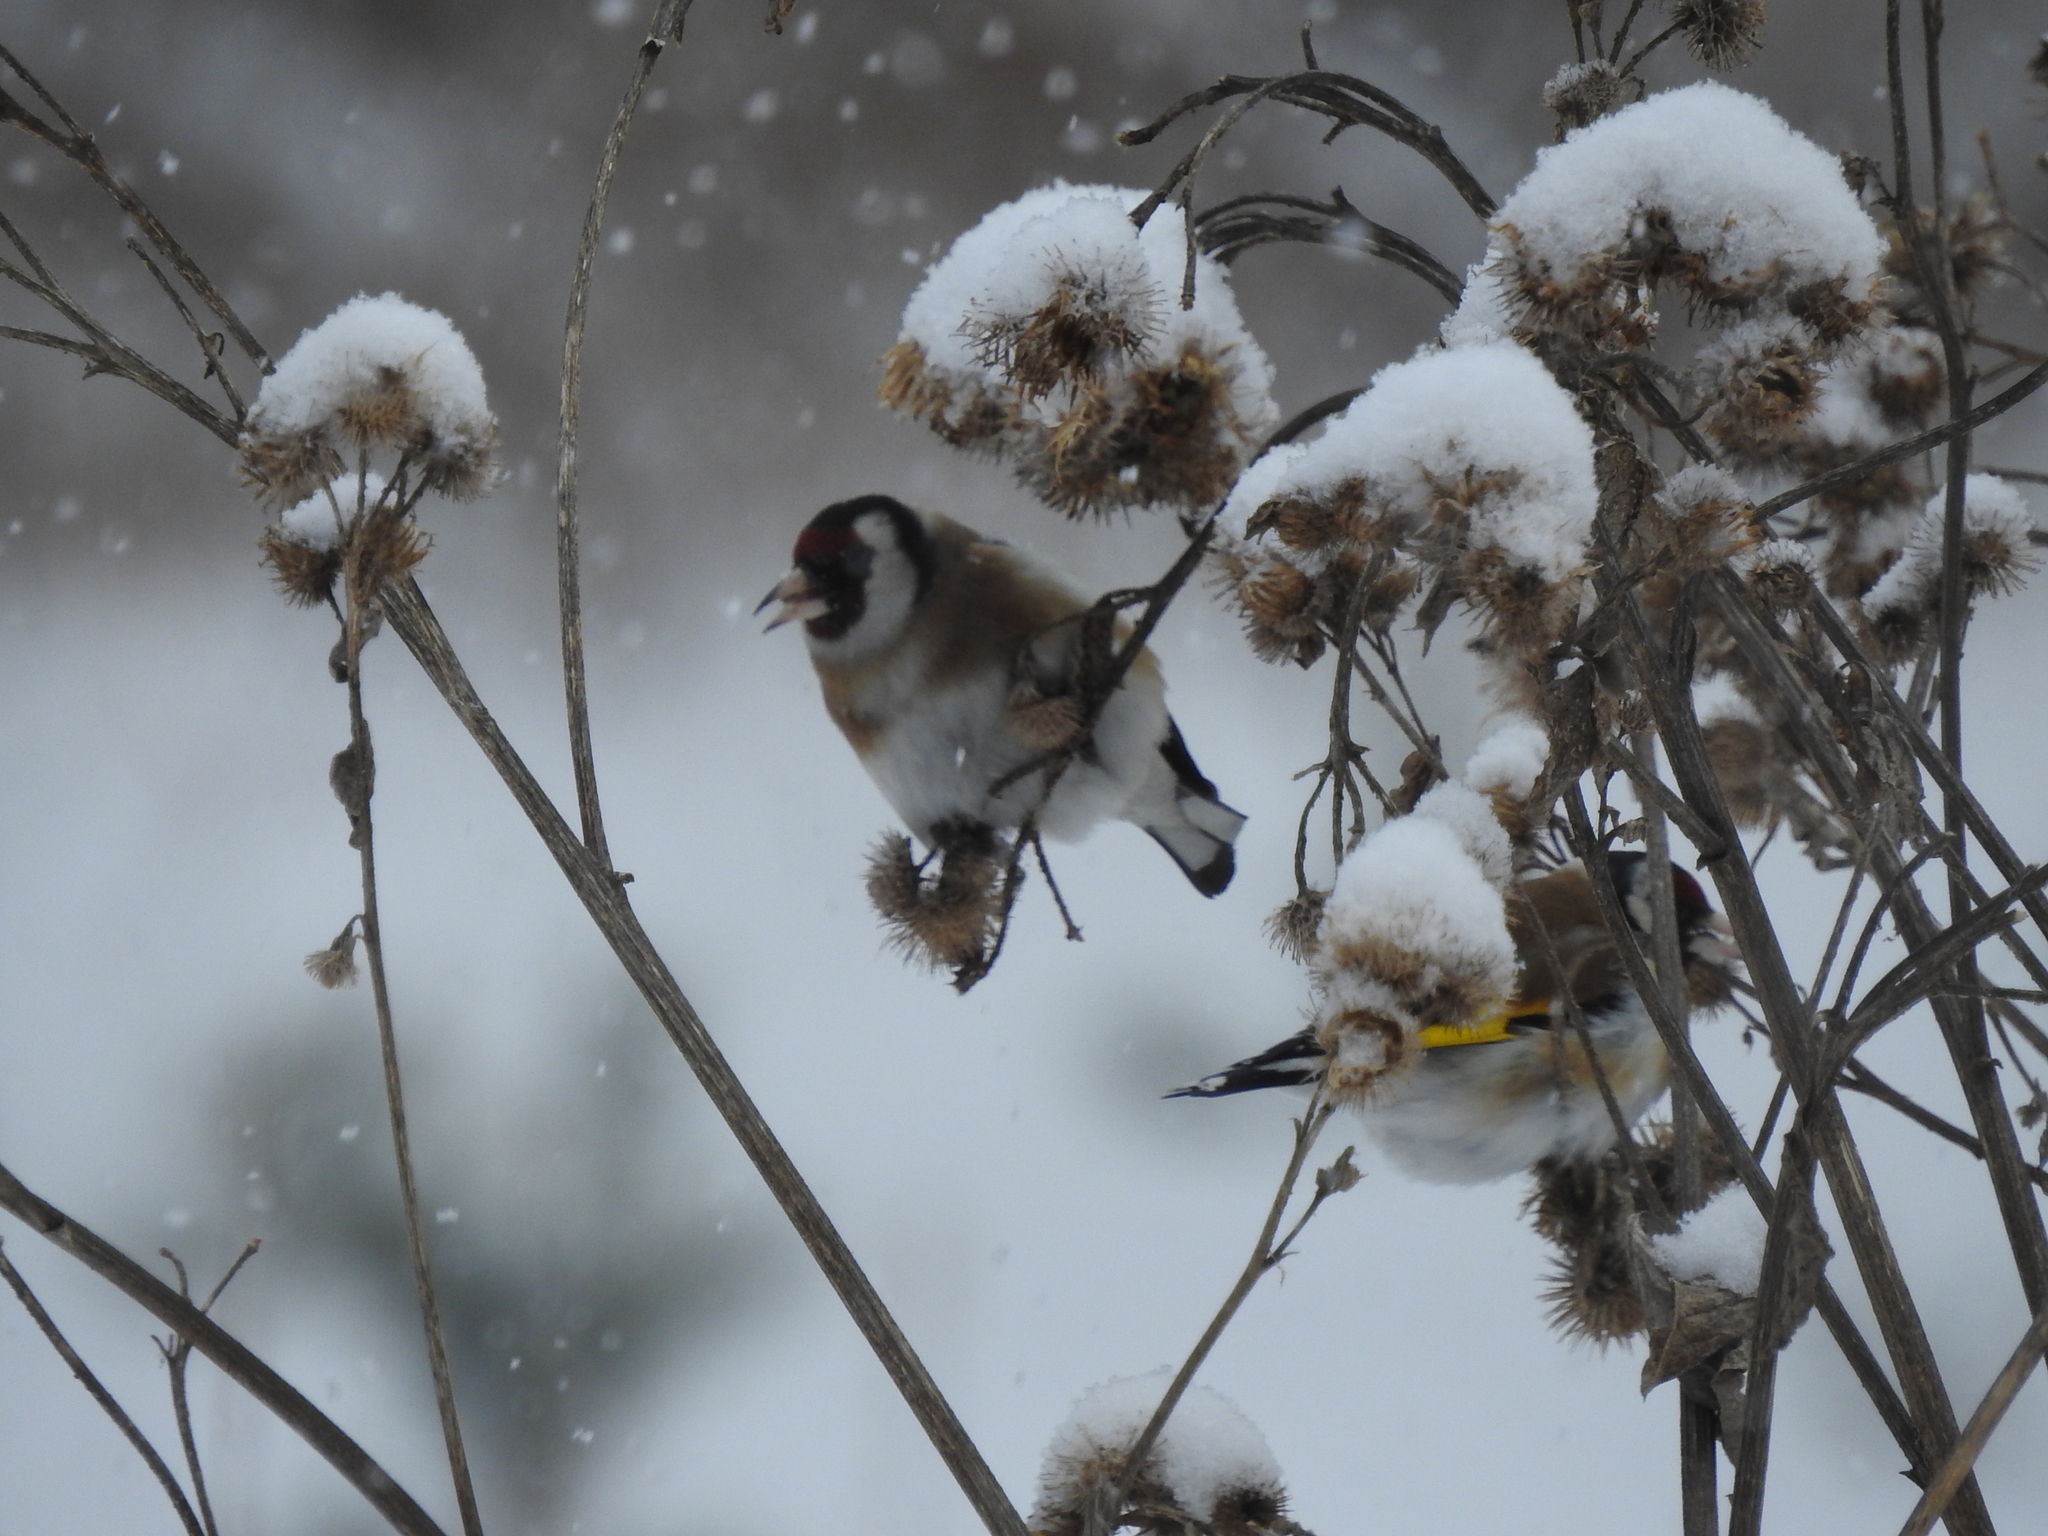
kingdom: Animalia
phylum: Chordata
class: Aves
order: Passeriformes
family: Fringillidae
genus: Carduelis
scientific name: Carduelis carduelis
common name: European goldfinch
